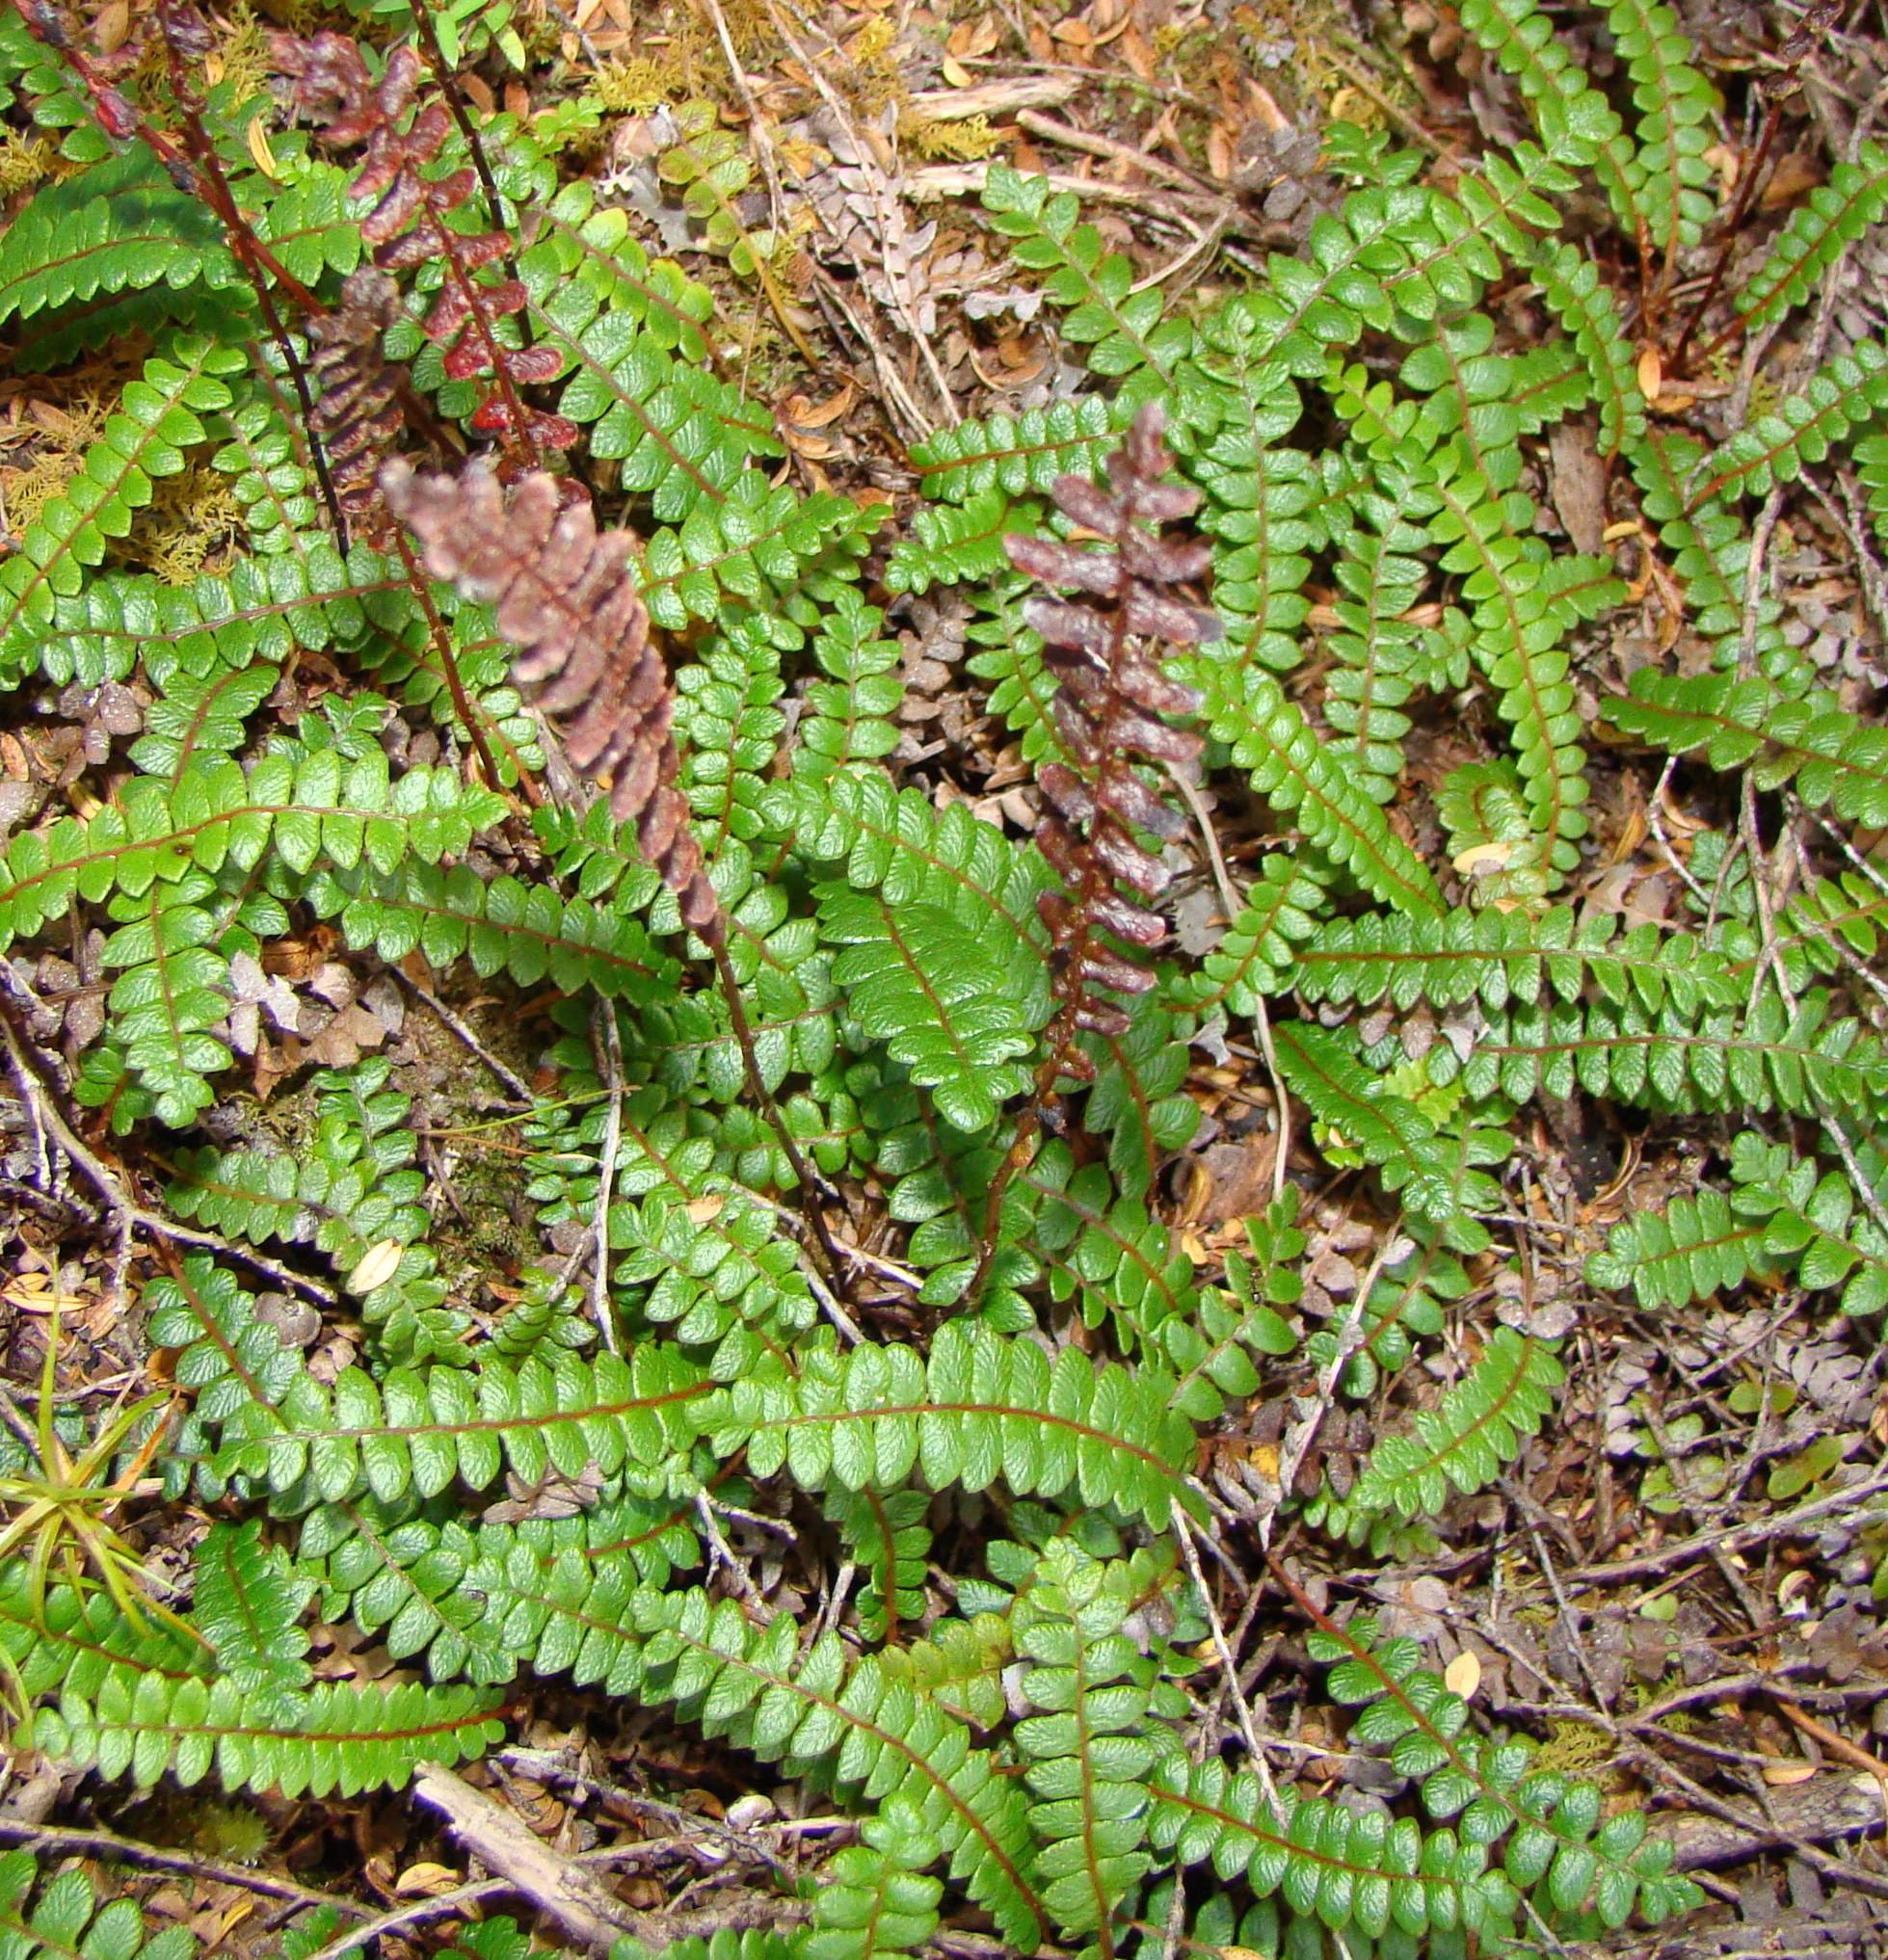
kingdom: Plantae
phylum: Tracheophyta
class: Polypodiopsida
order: Polypodiales
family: Blechnaceae
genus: Austroblechnum
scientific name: Austroblechnum penna-marina
